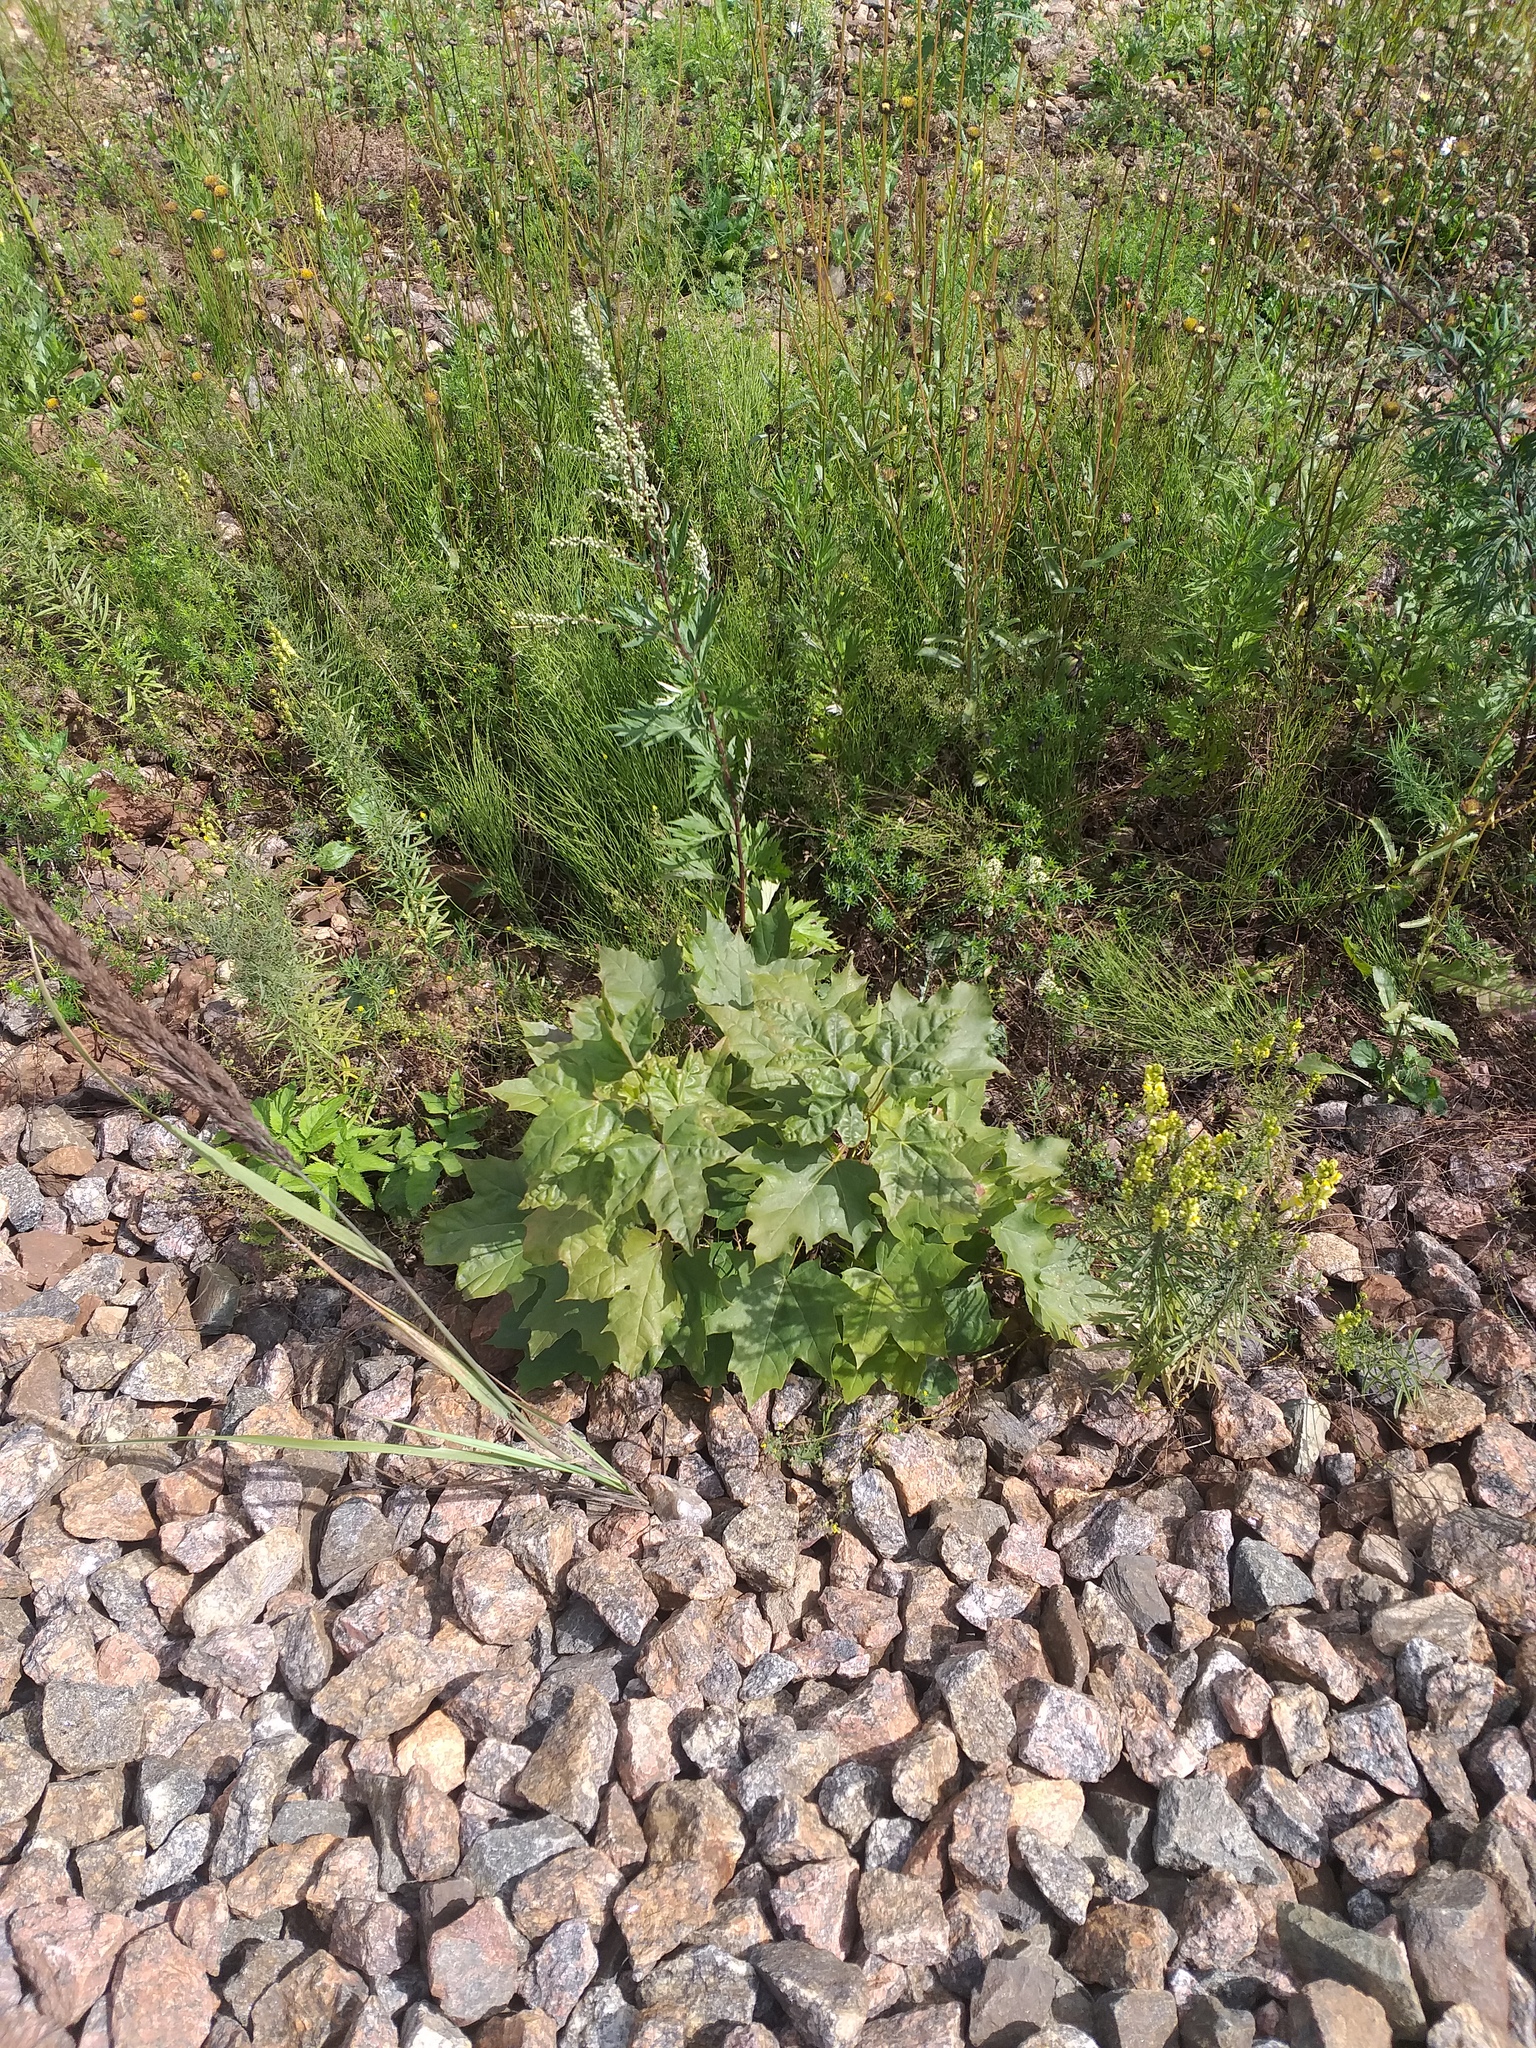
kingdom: Plantae
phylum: Tracheophyta
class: Magnoliopsida
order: Sapindales
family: Sapindaceae
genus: Acer
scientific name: Acer platanoides
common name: Norway maple
